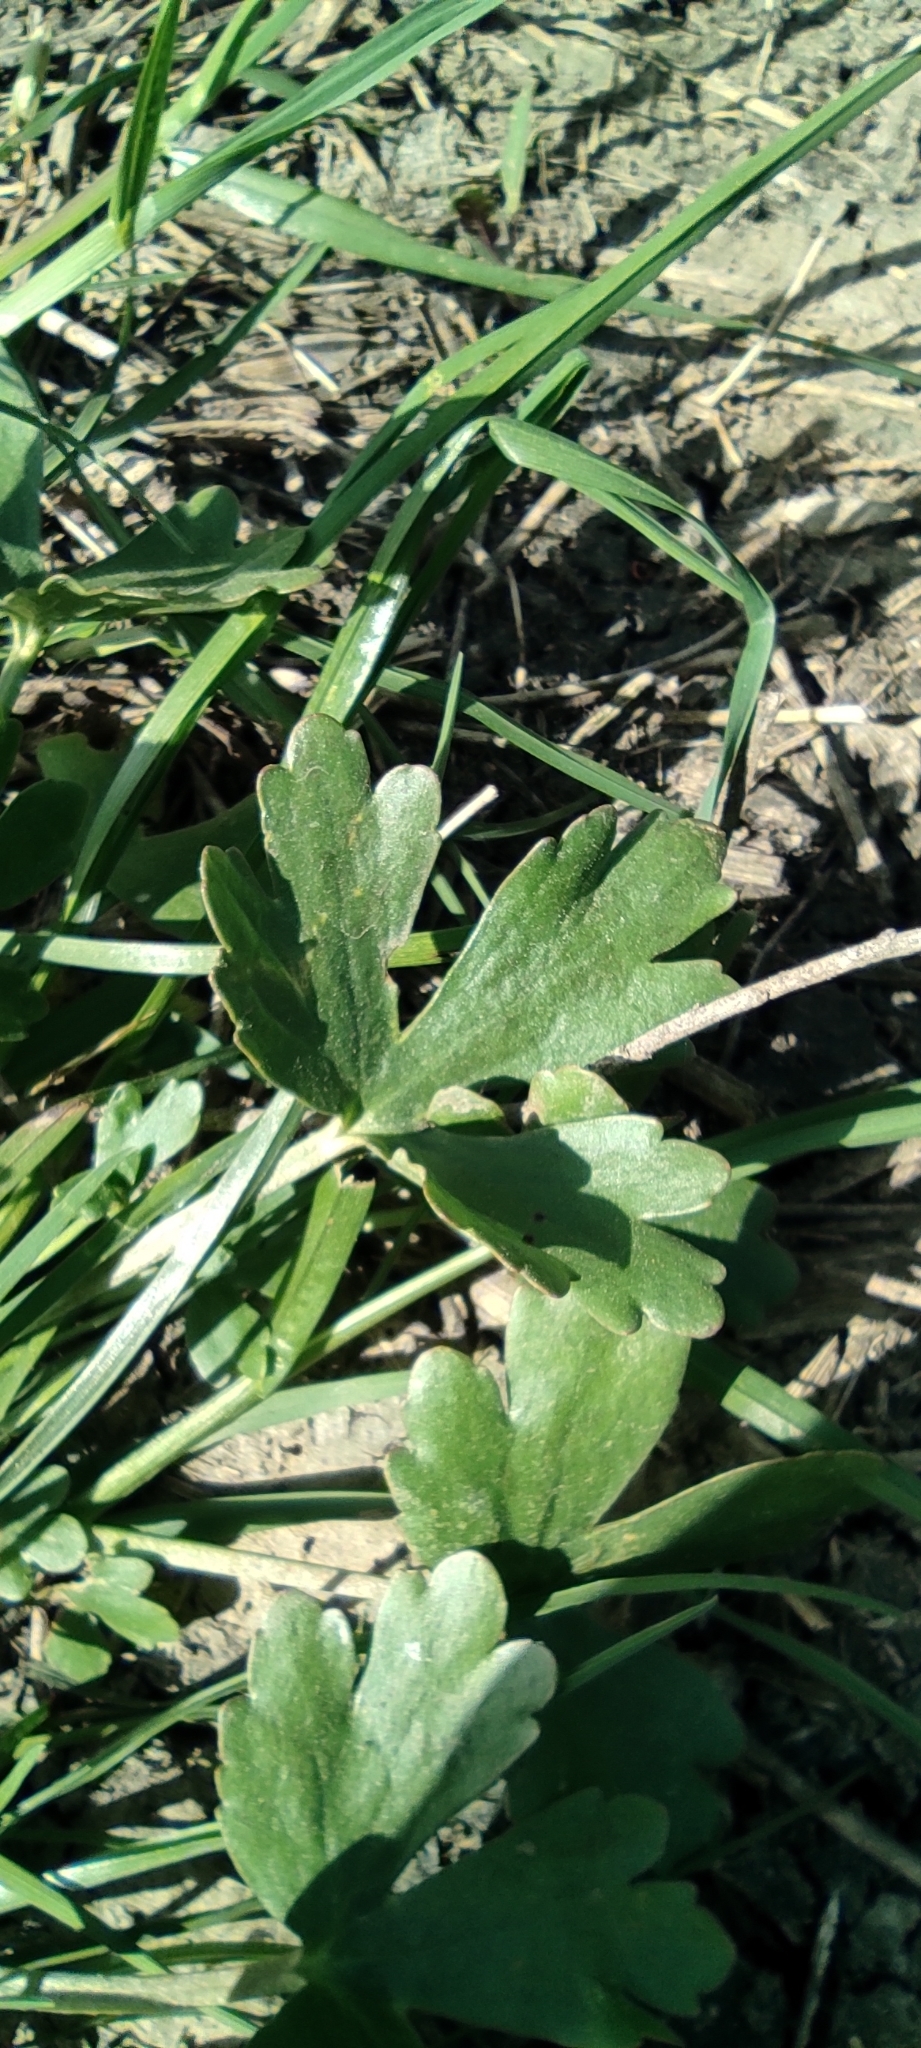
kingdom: Plantae
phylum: Tracheophyta
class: Magnoliopsida
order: Ranunculales
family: Ranunculaceae
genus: Ranunculus
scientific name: Ranunculus sceleratus
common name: Celery-leaved buttercup
